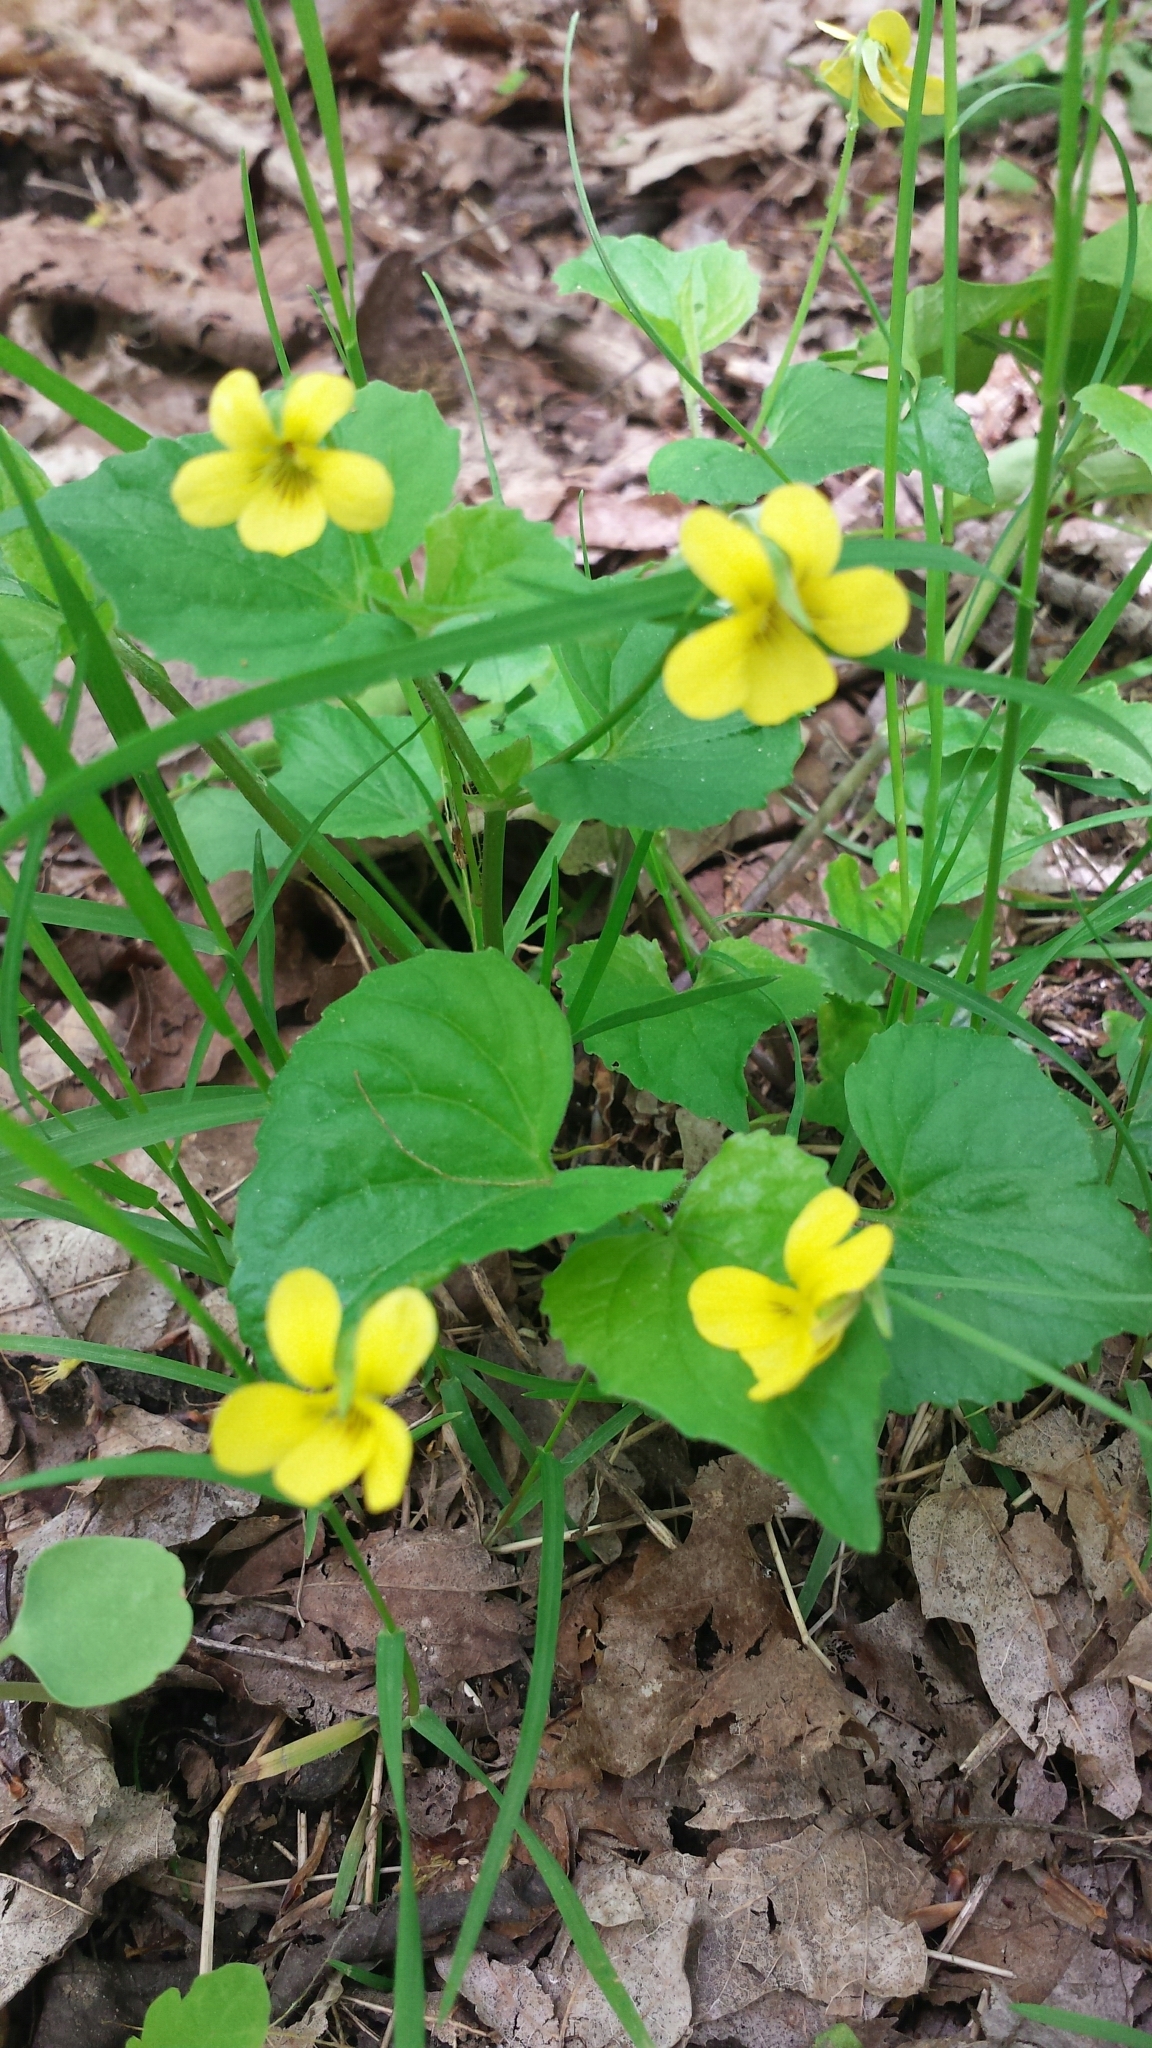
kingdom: Plantae
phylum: Tracheophyta
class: Magnoliopsida
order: Malpighiales
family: Violaceae
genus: Viola
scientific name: Viola eriocarpa
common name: Smooth yellow violet
